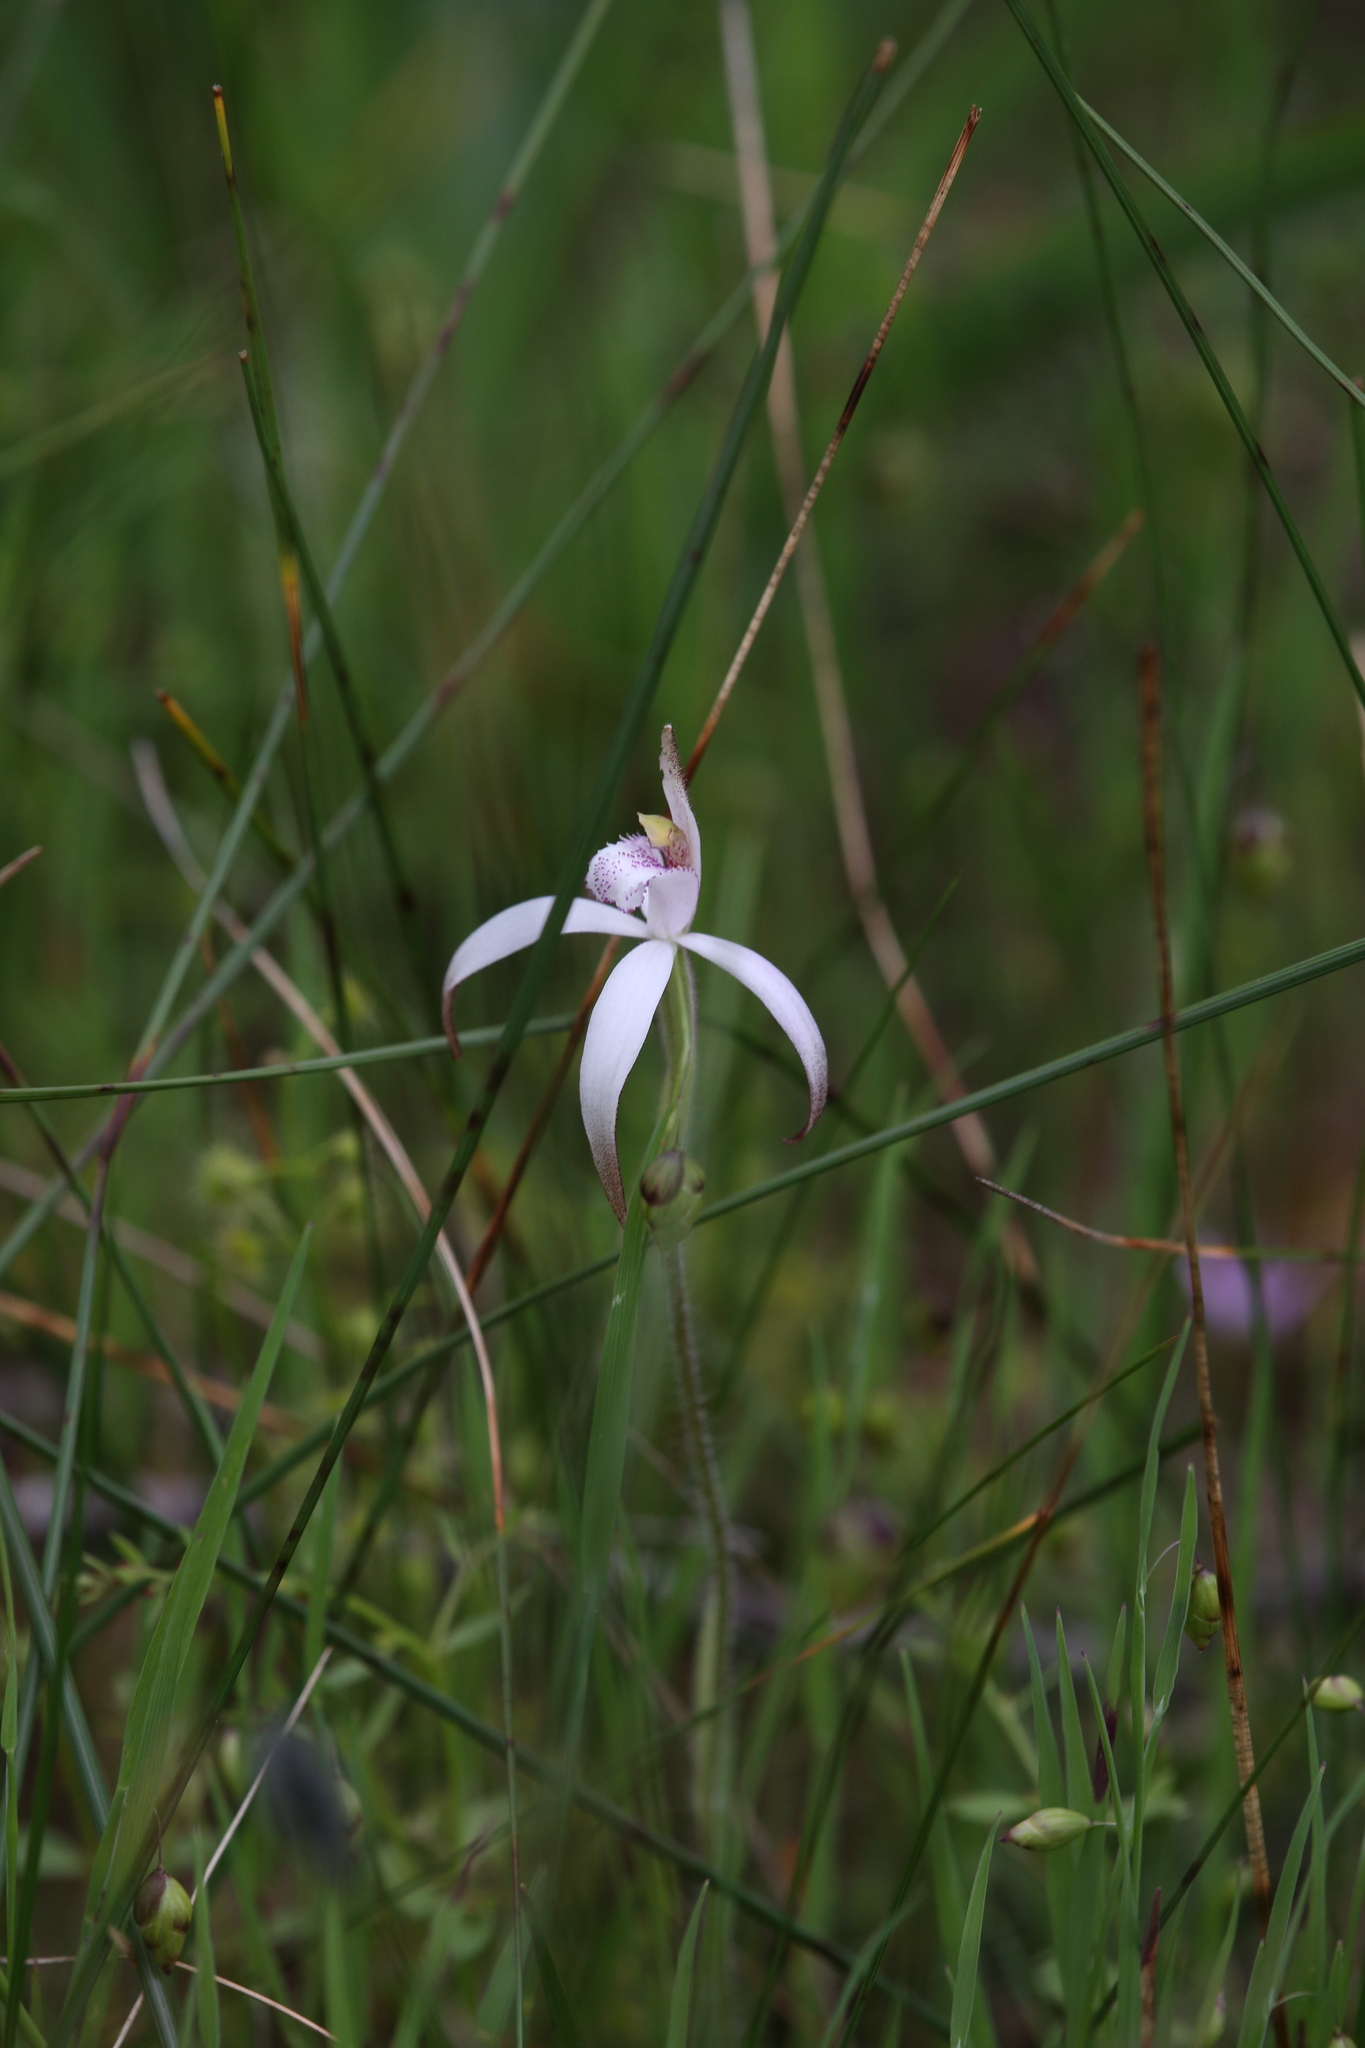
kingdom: Plantae
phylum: Tracheophyta
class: Liliopsida
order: Asparagales
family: Orchidaceae
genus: Caladenia
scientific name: Caladenia hirta
